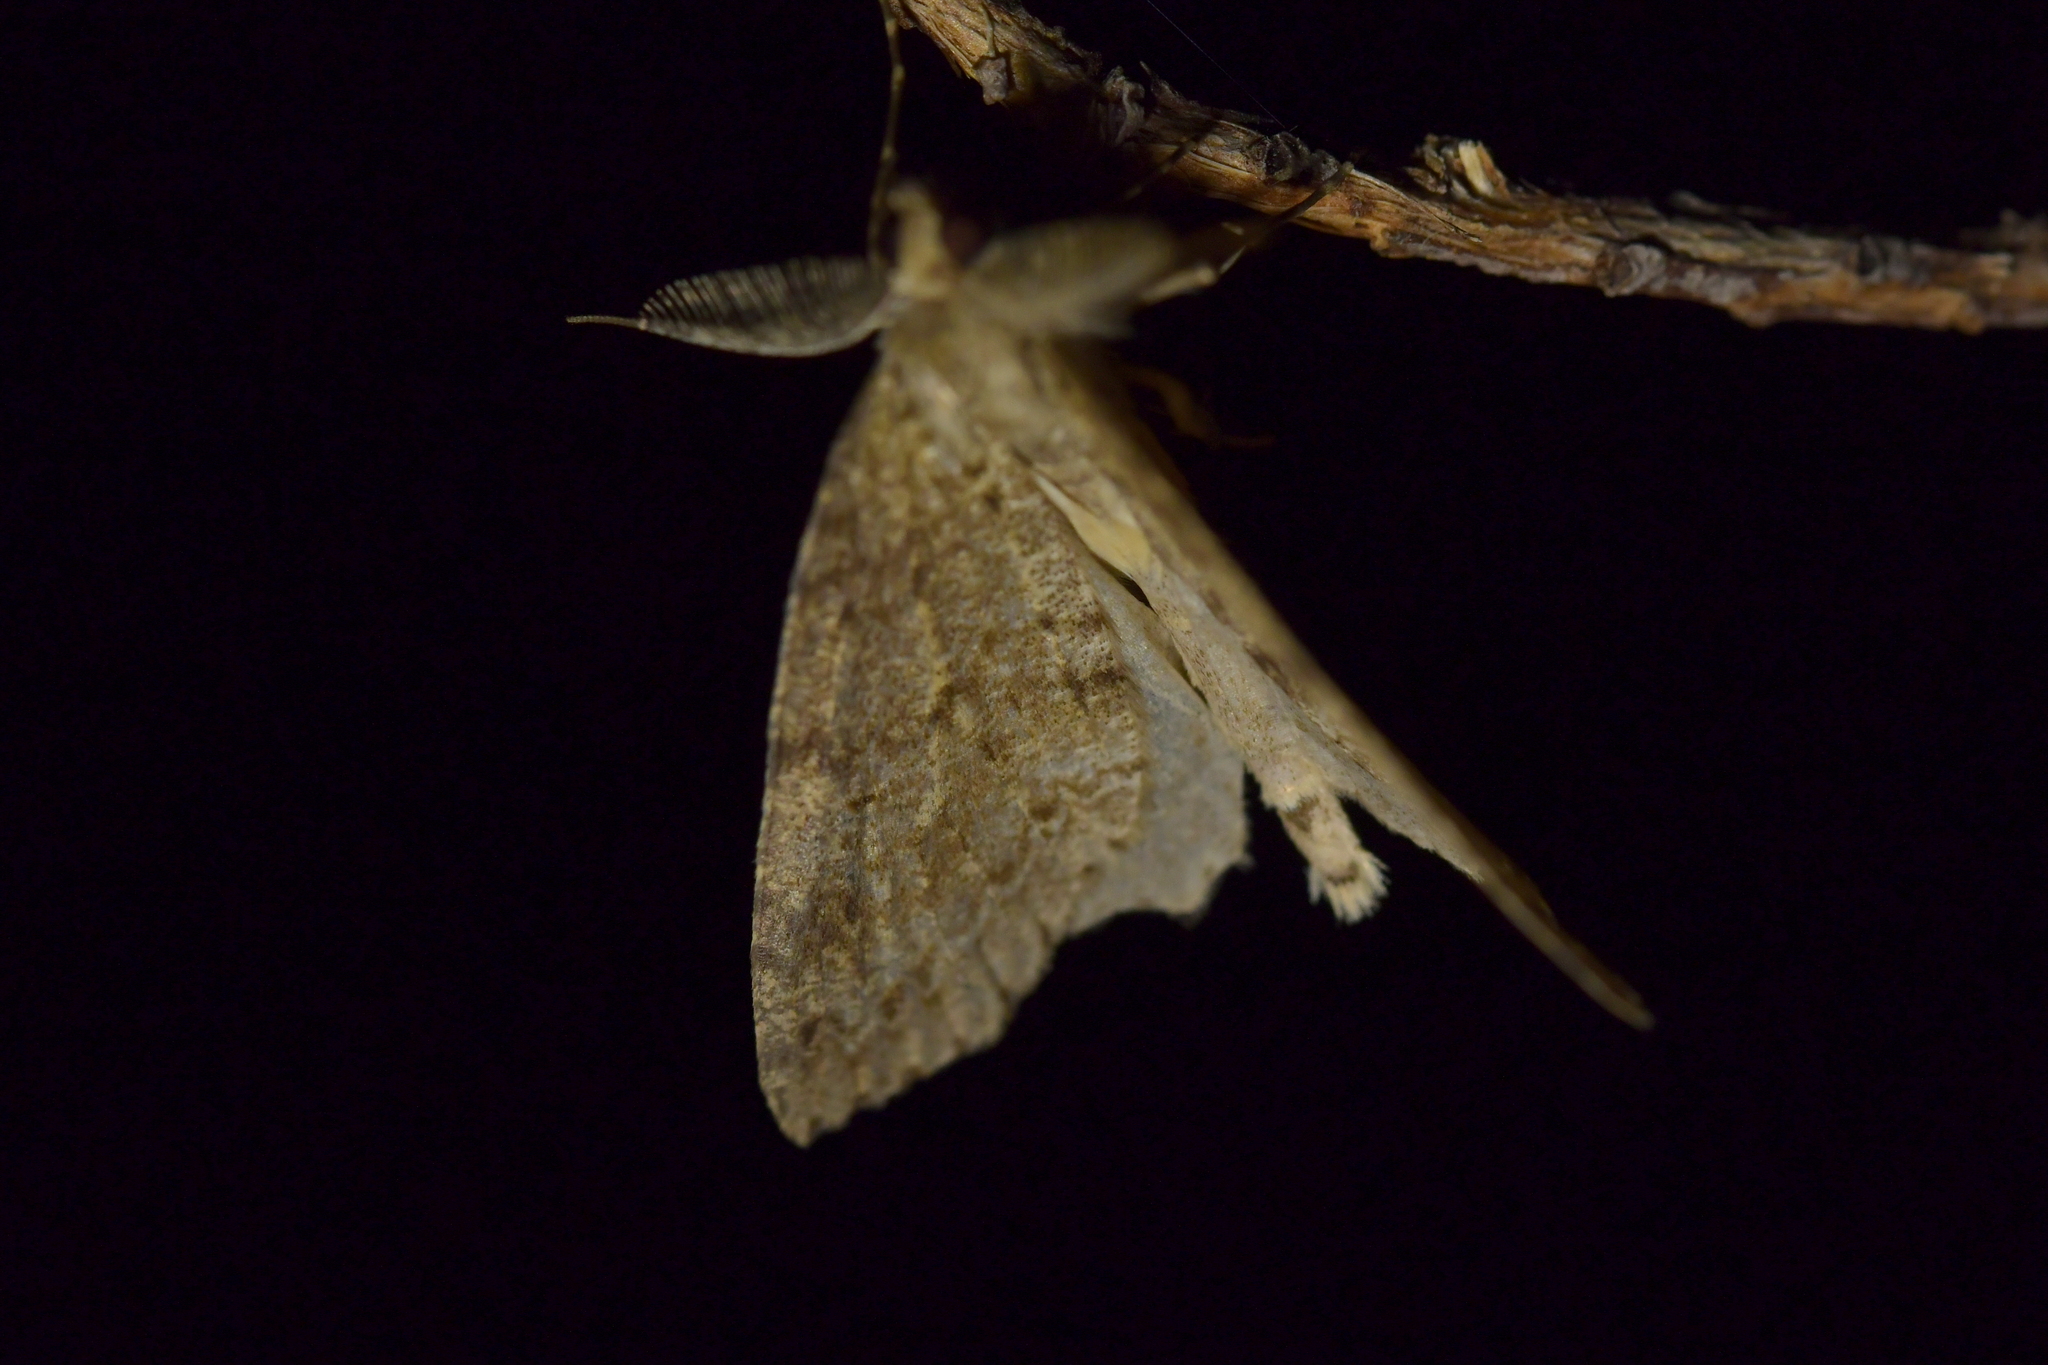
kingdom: Animalia
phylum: Arthropoda
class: Insecta
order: Lepidoptera
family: Geometridae
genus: Pseudocoremia
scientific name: Pseudocoremia fenerata
